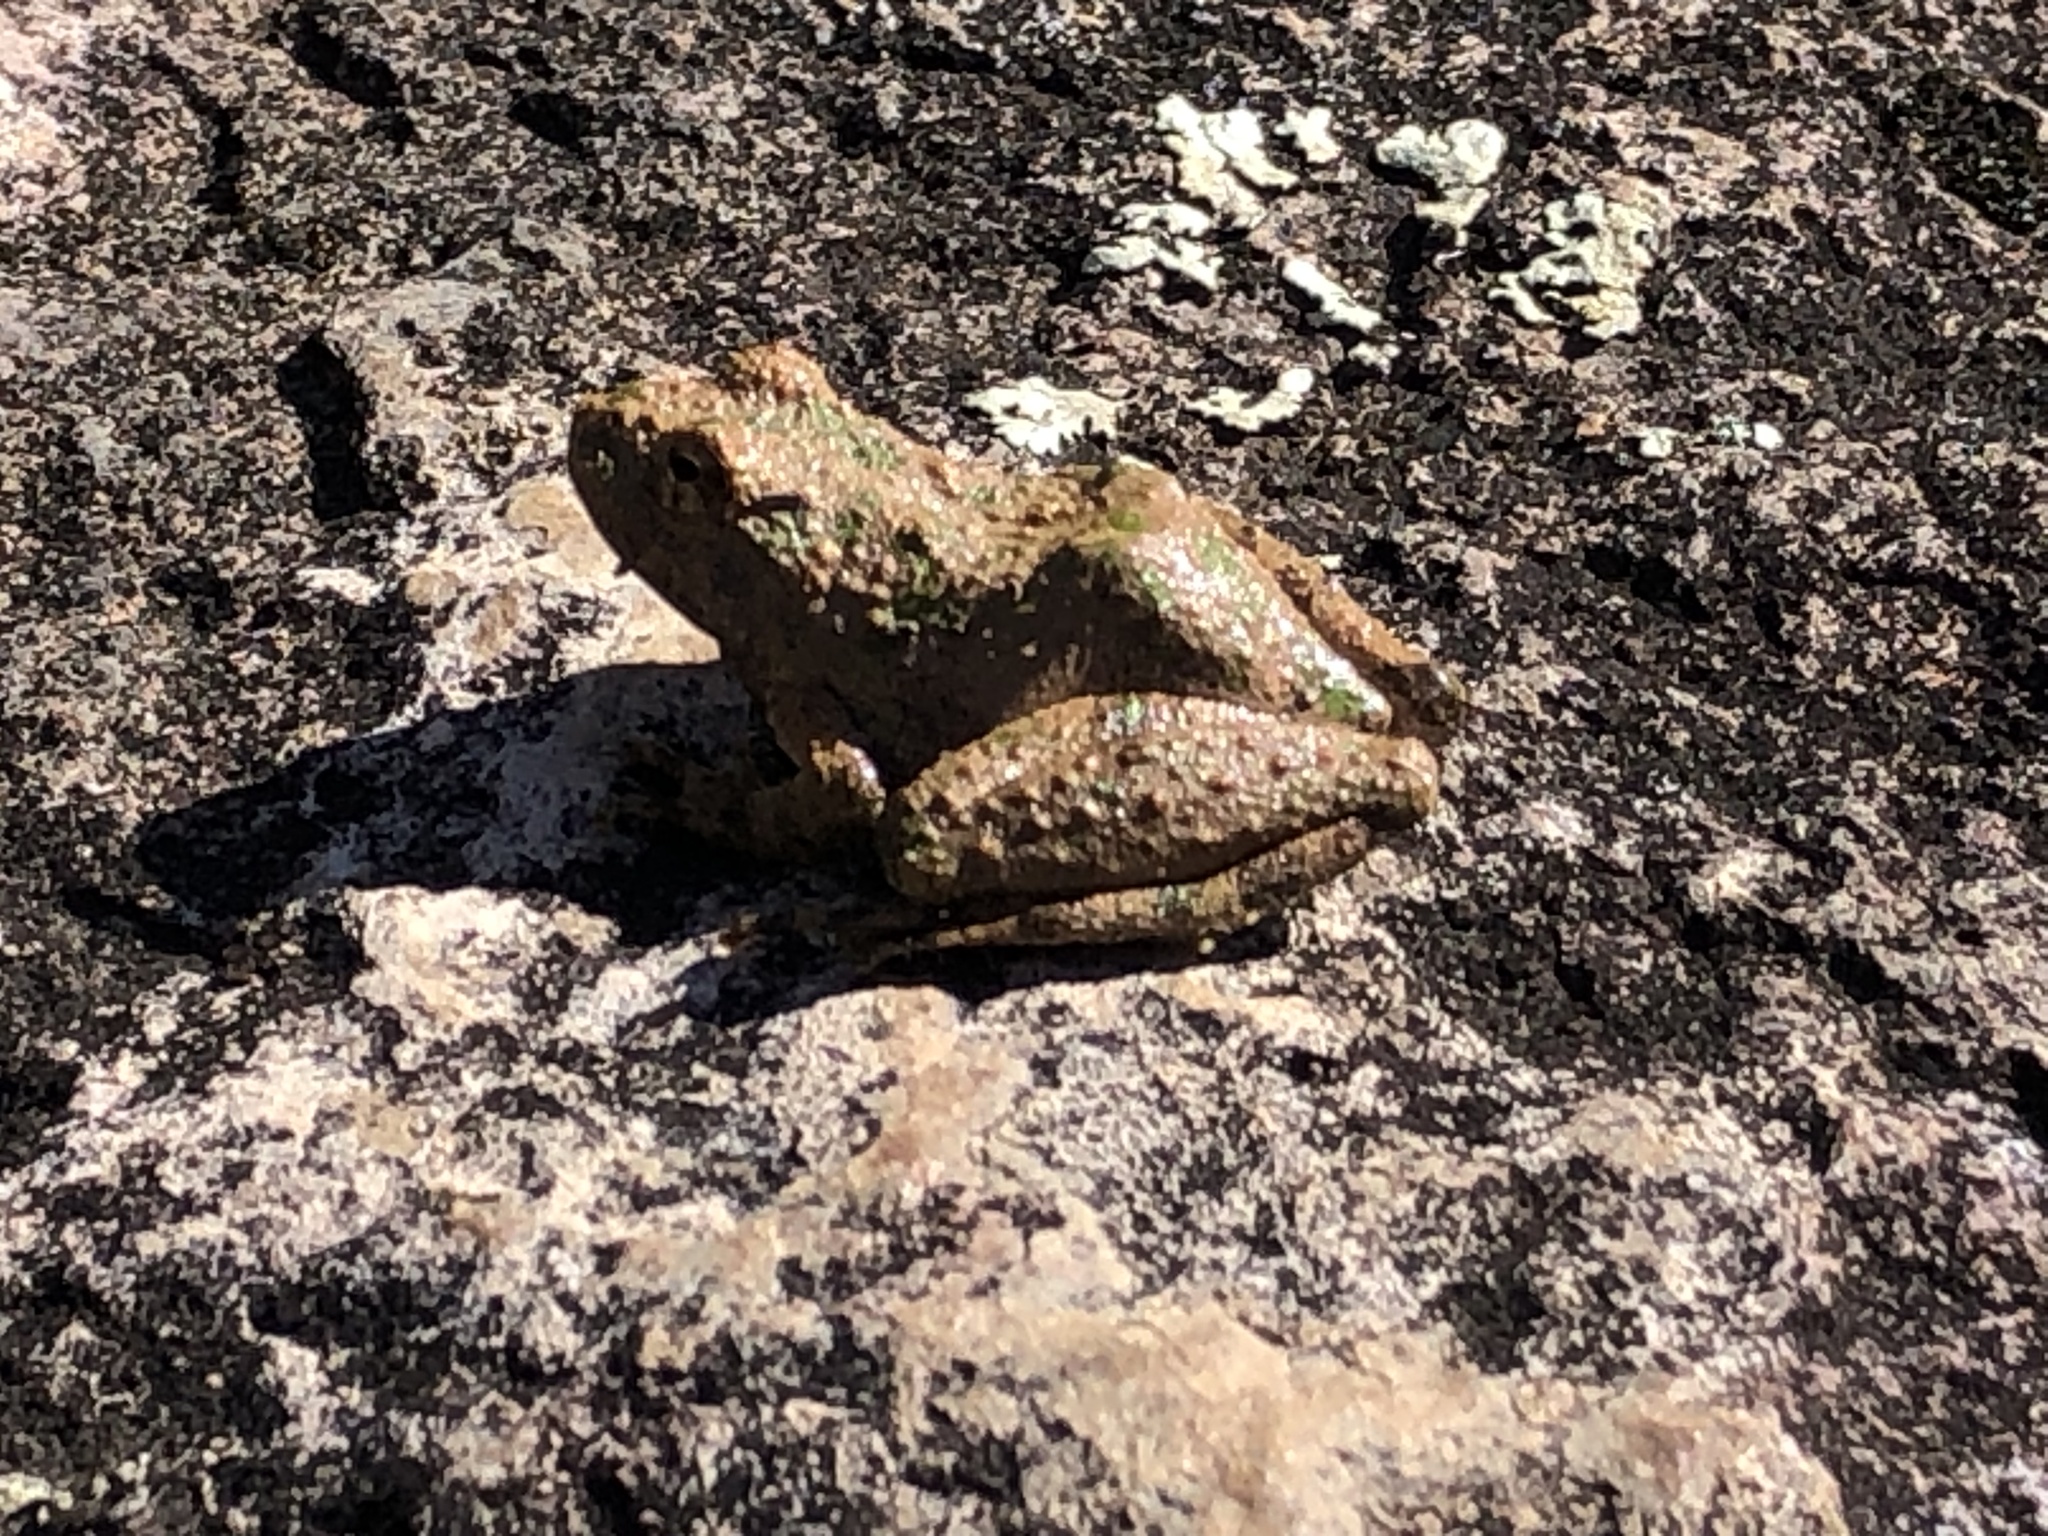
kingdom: Animalia
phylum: Chordata
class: Amphibia
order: Anura
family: Hylidae
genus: Acris
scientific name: Acris blanchardi
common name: Blanchard's cricket frog
